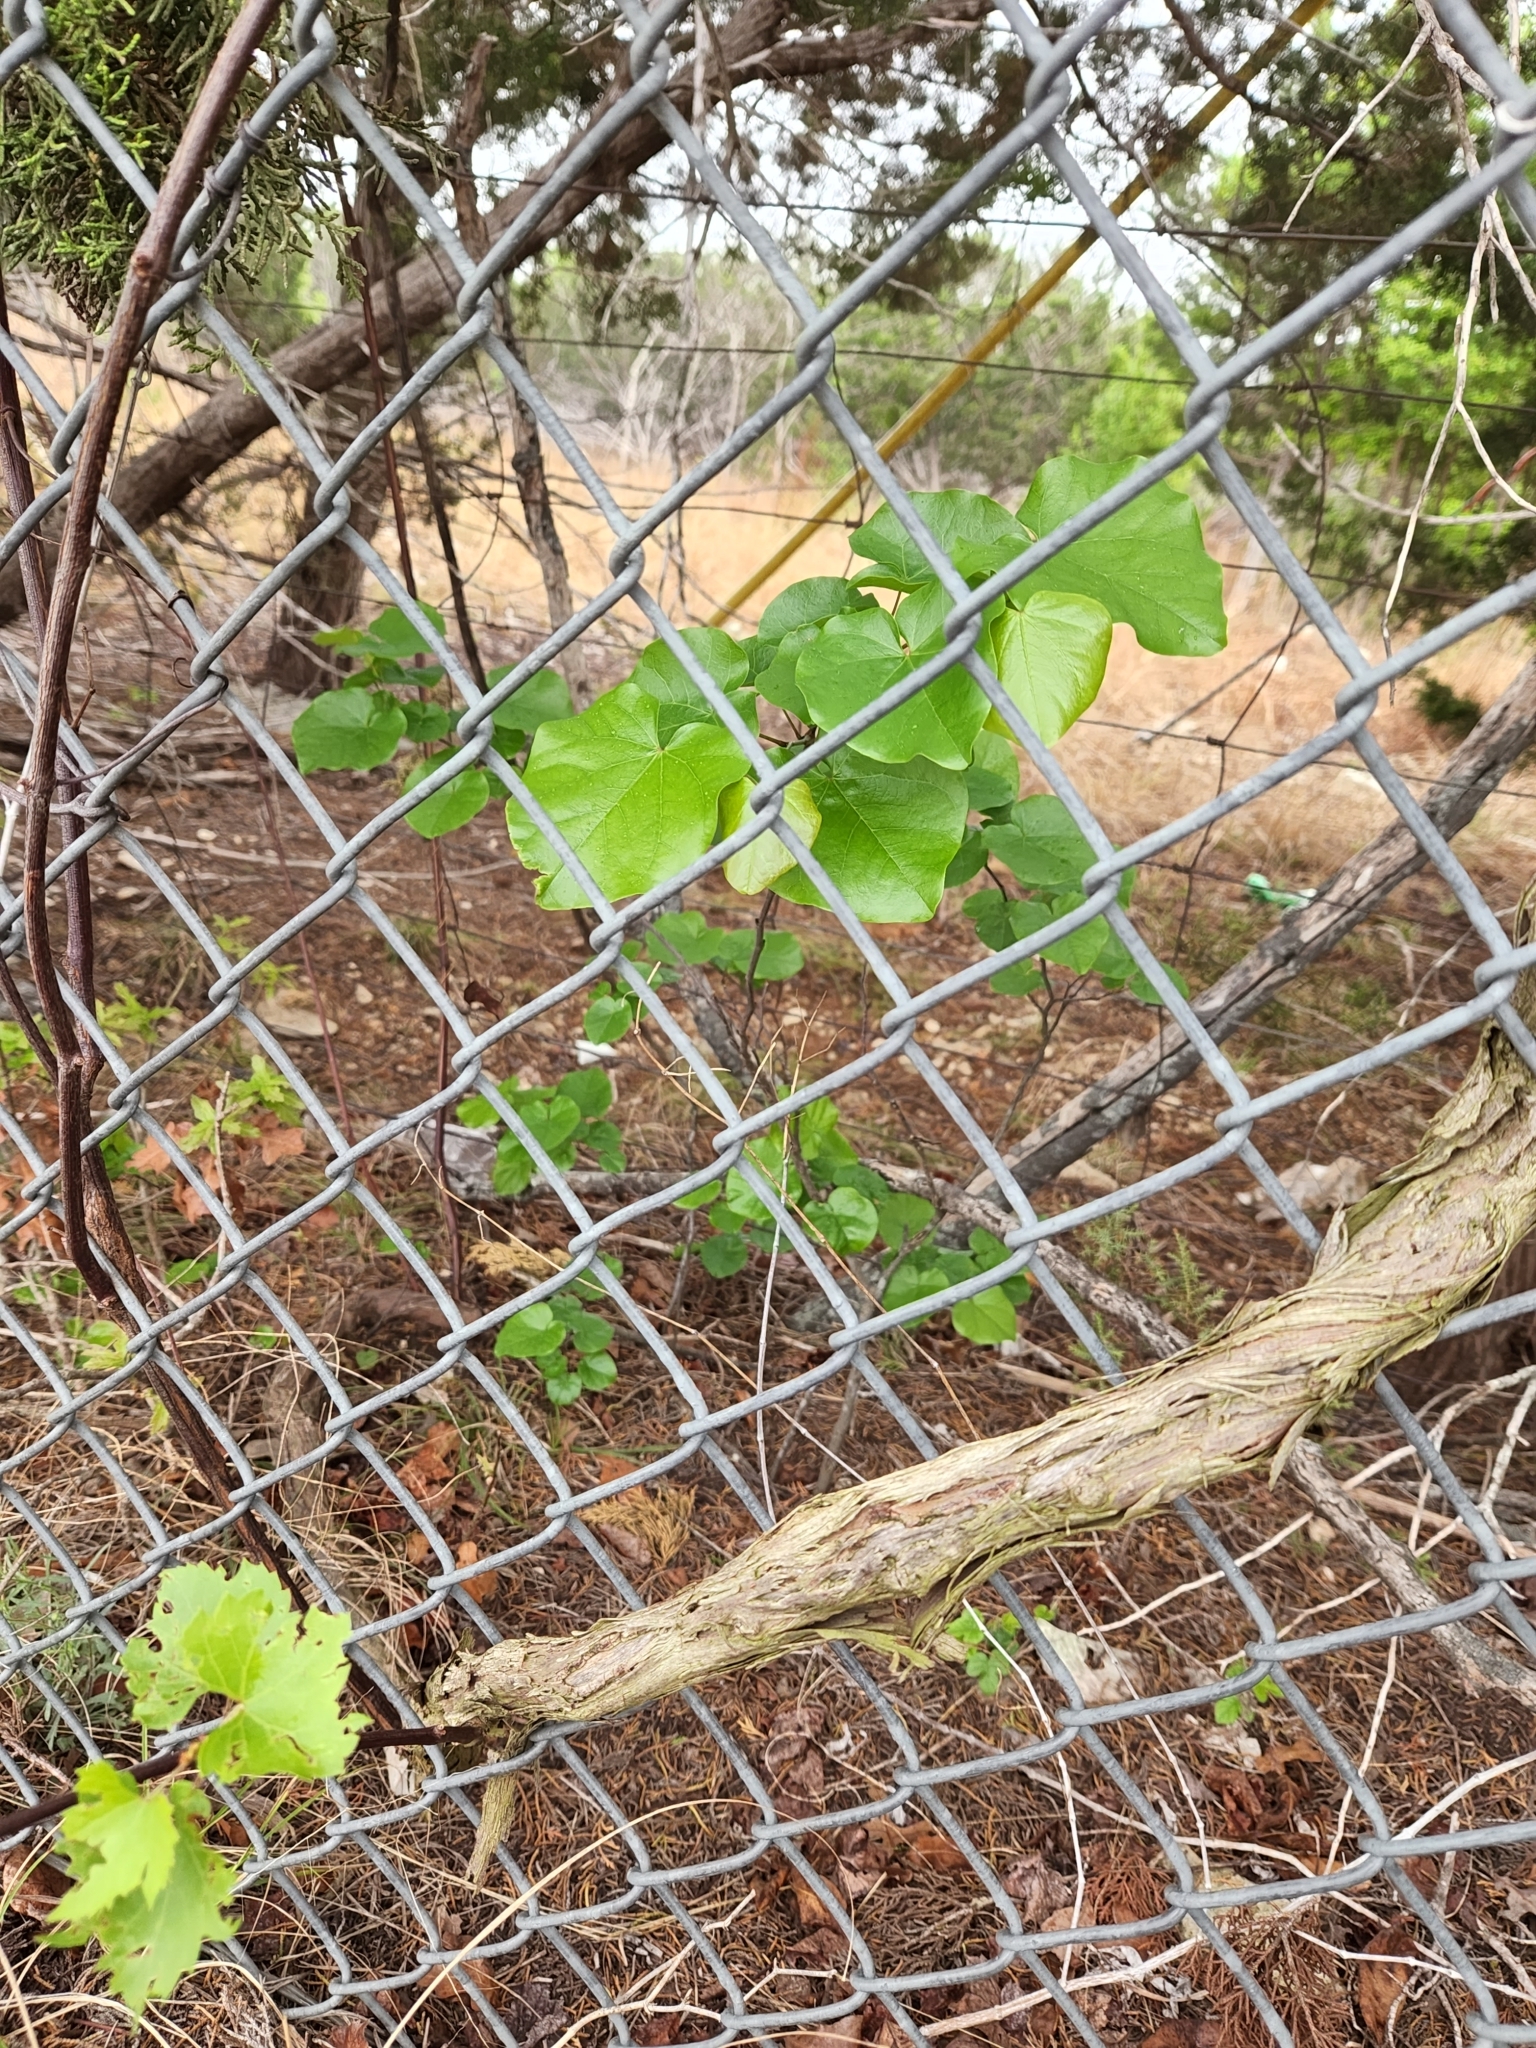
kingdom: Plantae
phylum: Tracheophyta
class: Magnoliopsida
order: Fabales
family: Fabaceae
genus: Cercis
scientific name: Cercis canadensis
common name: Eastern redbud
